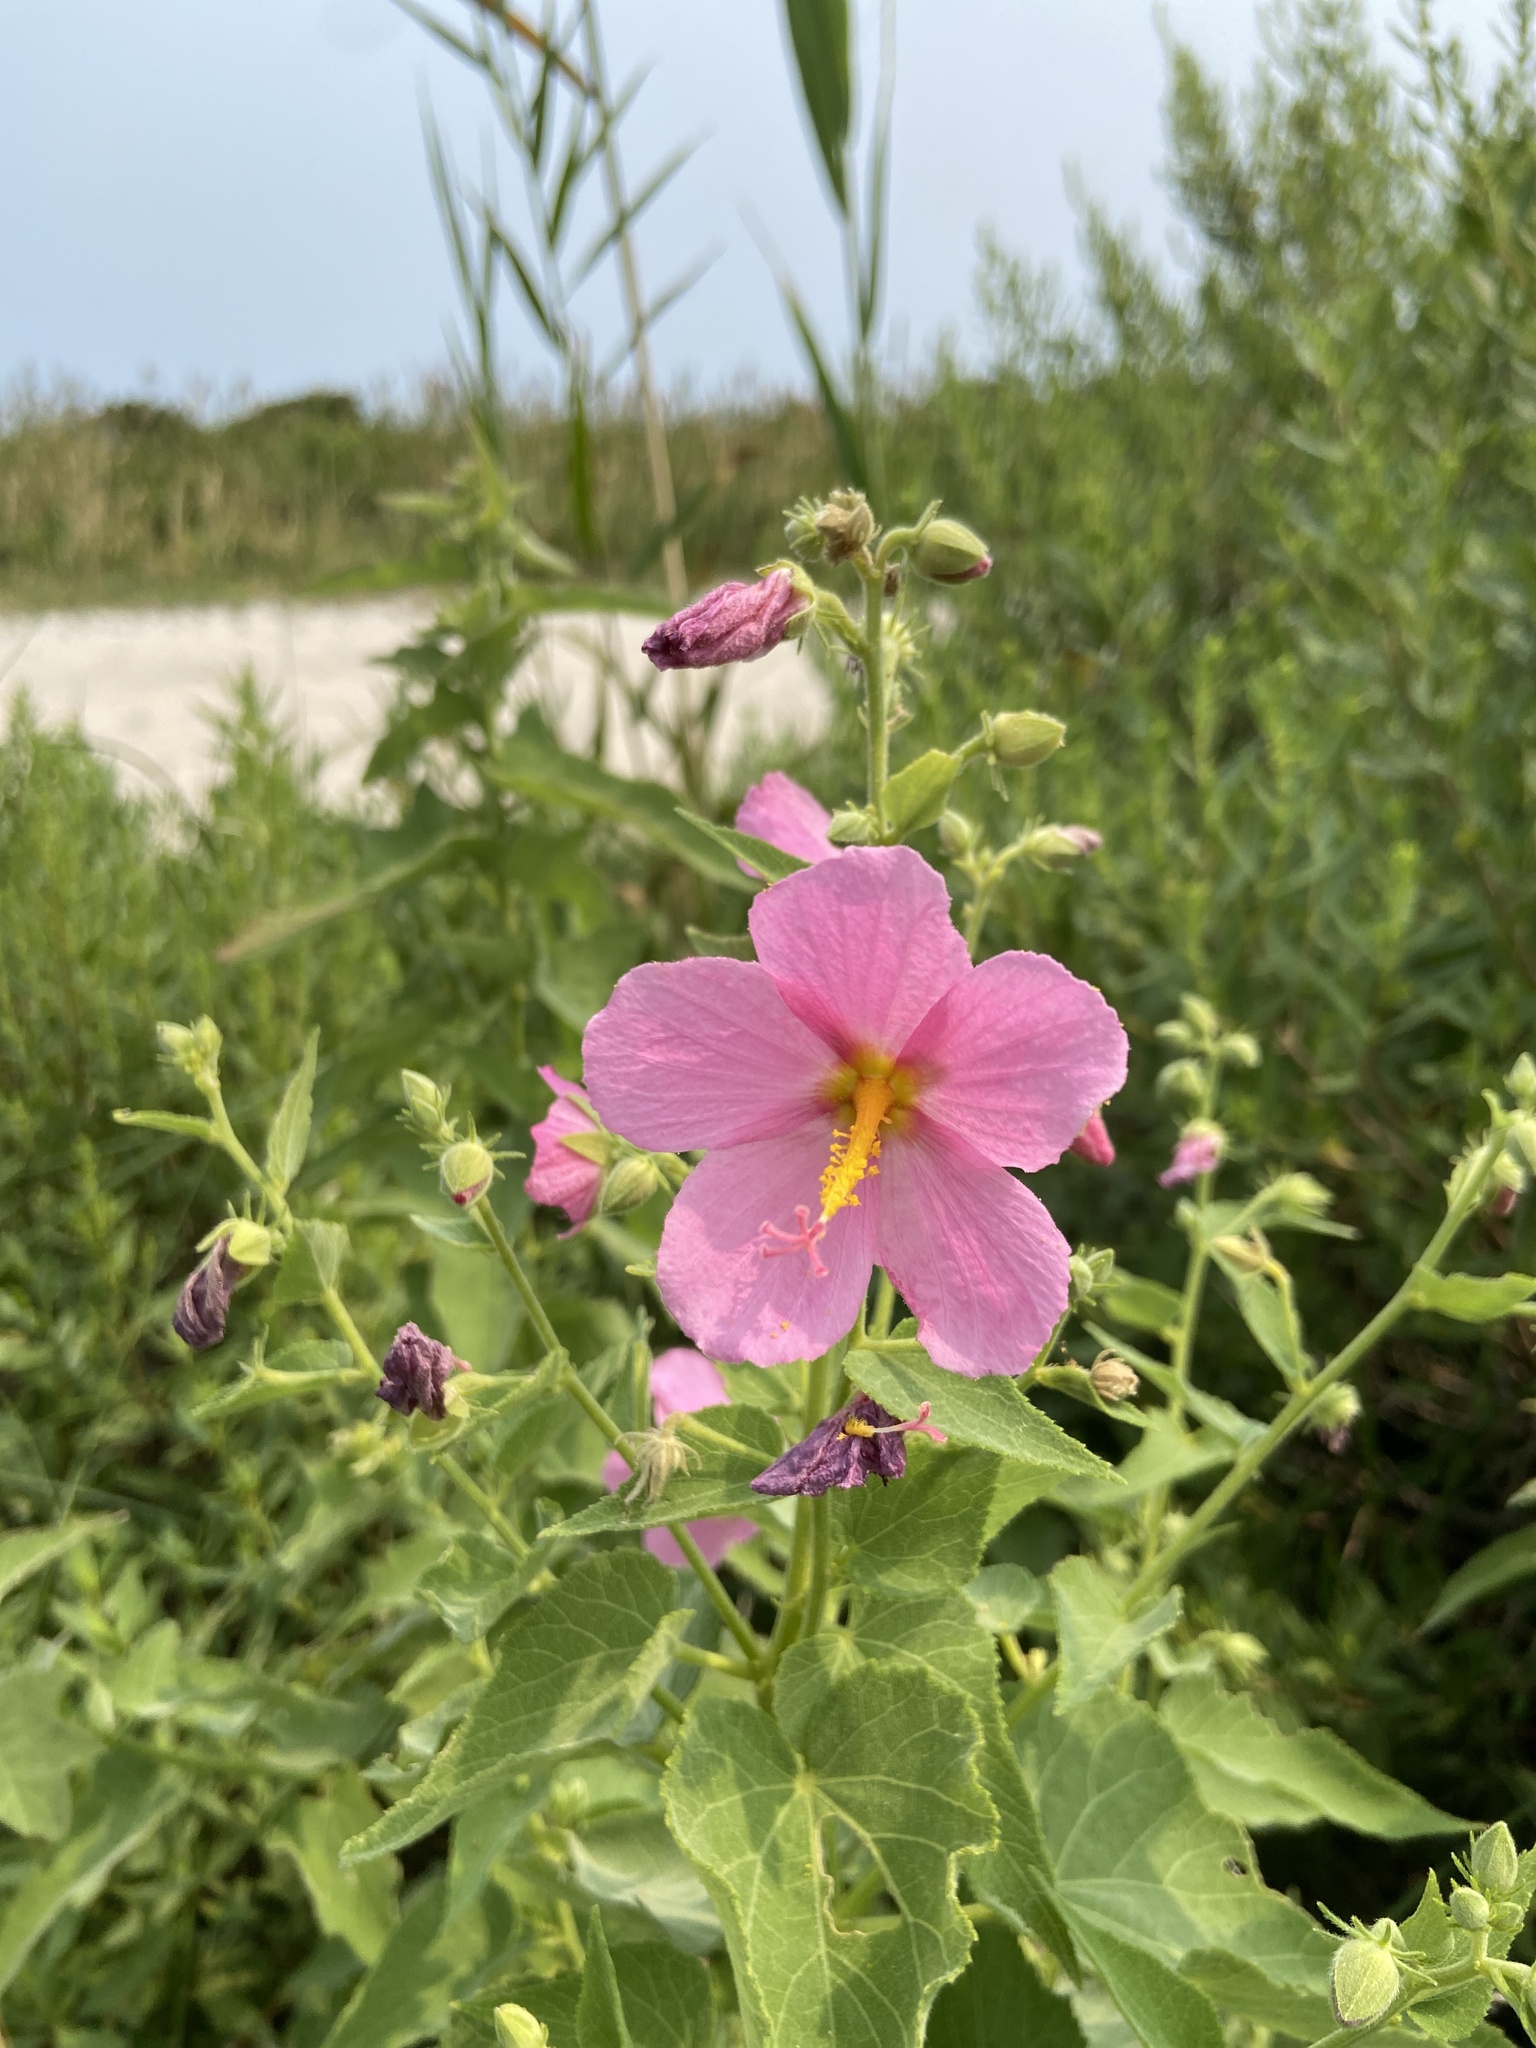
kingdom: Plantae
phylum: Tracheophyta
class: Magnoliopsida
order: Malvales
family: Malvaceae
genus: Kosteletzkya
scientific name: Kosteletzkya pentacarpos
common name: Virginia saltmarsh mallow
